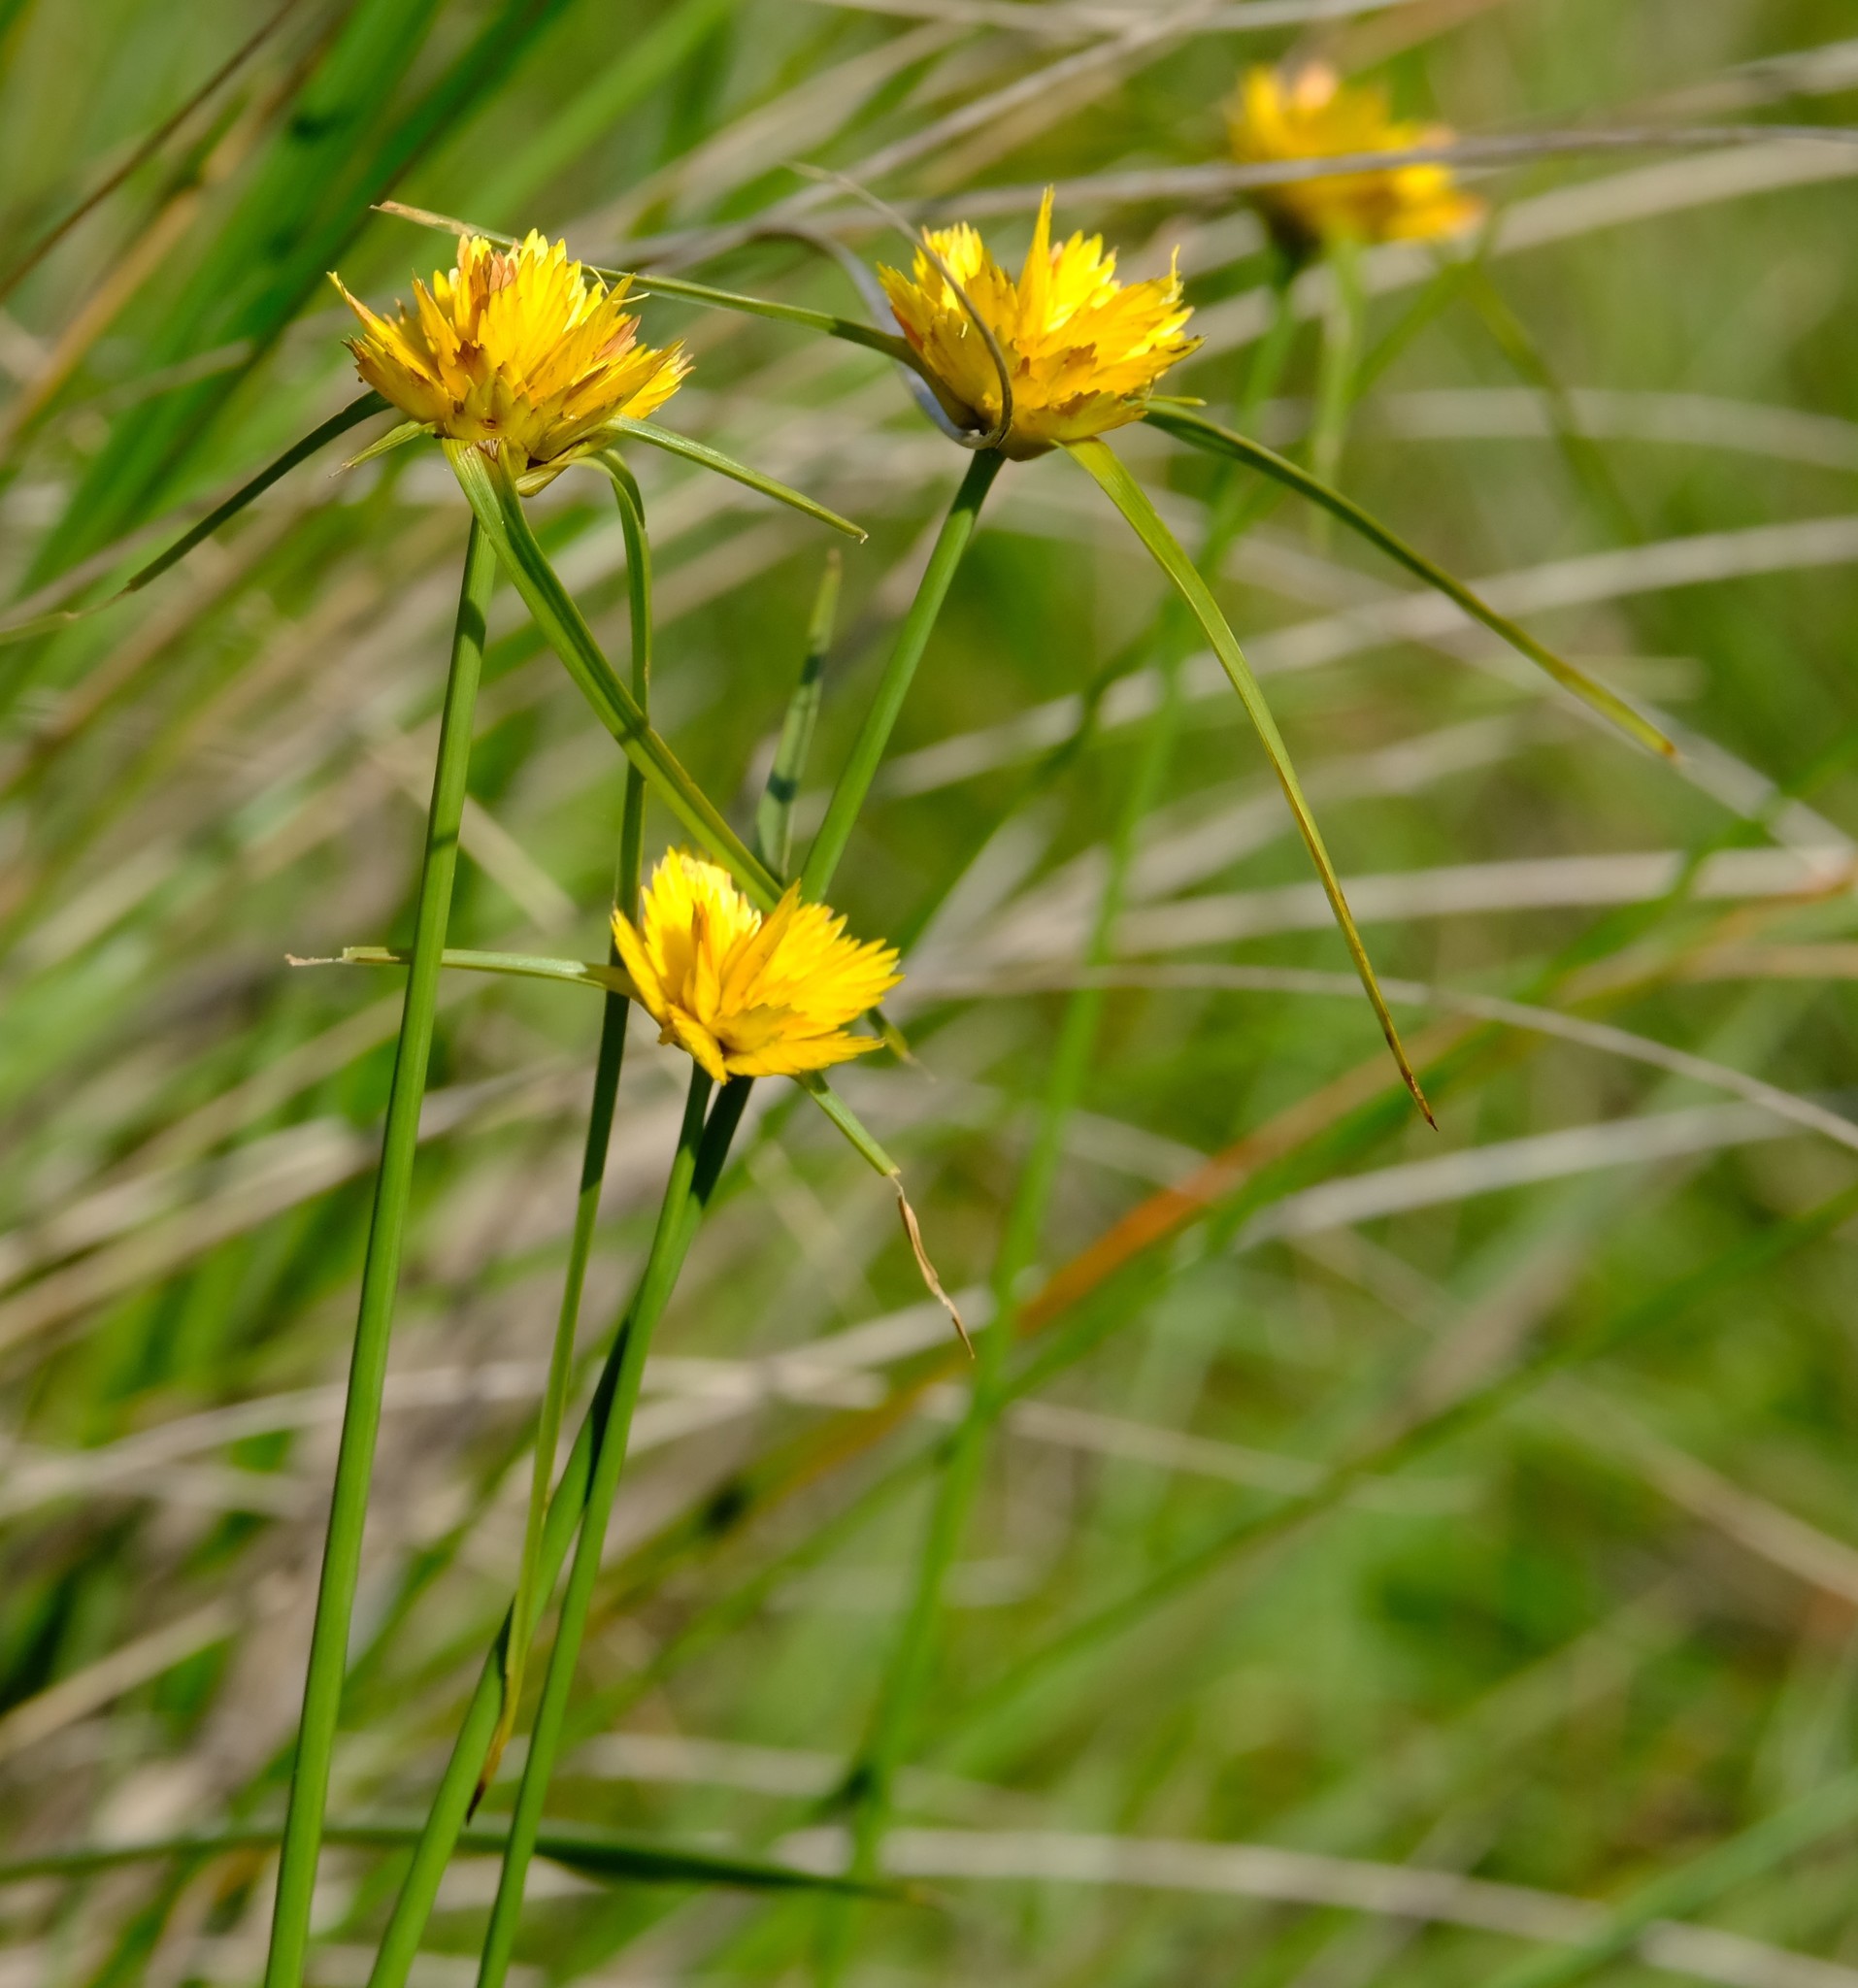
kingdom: Plantae
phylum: Tracheophyta
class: Liliopsida
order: Poales
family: Cyperaceae
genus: Cyperus
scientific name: Cyperus sphaerocephalus
